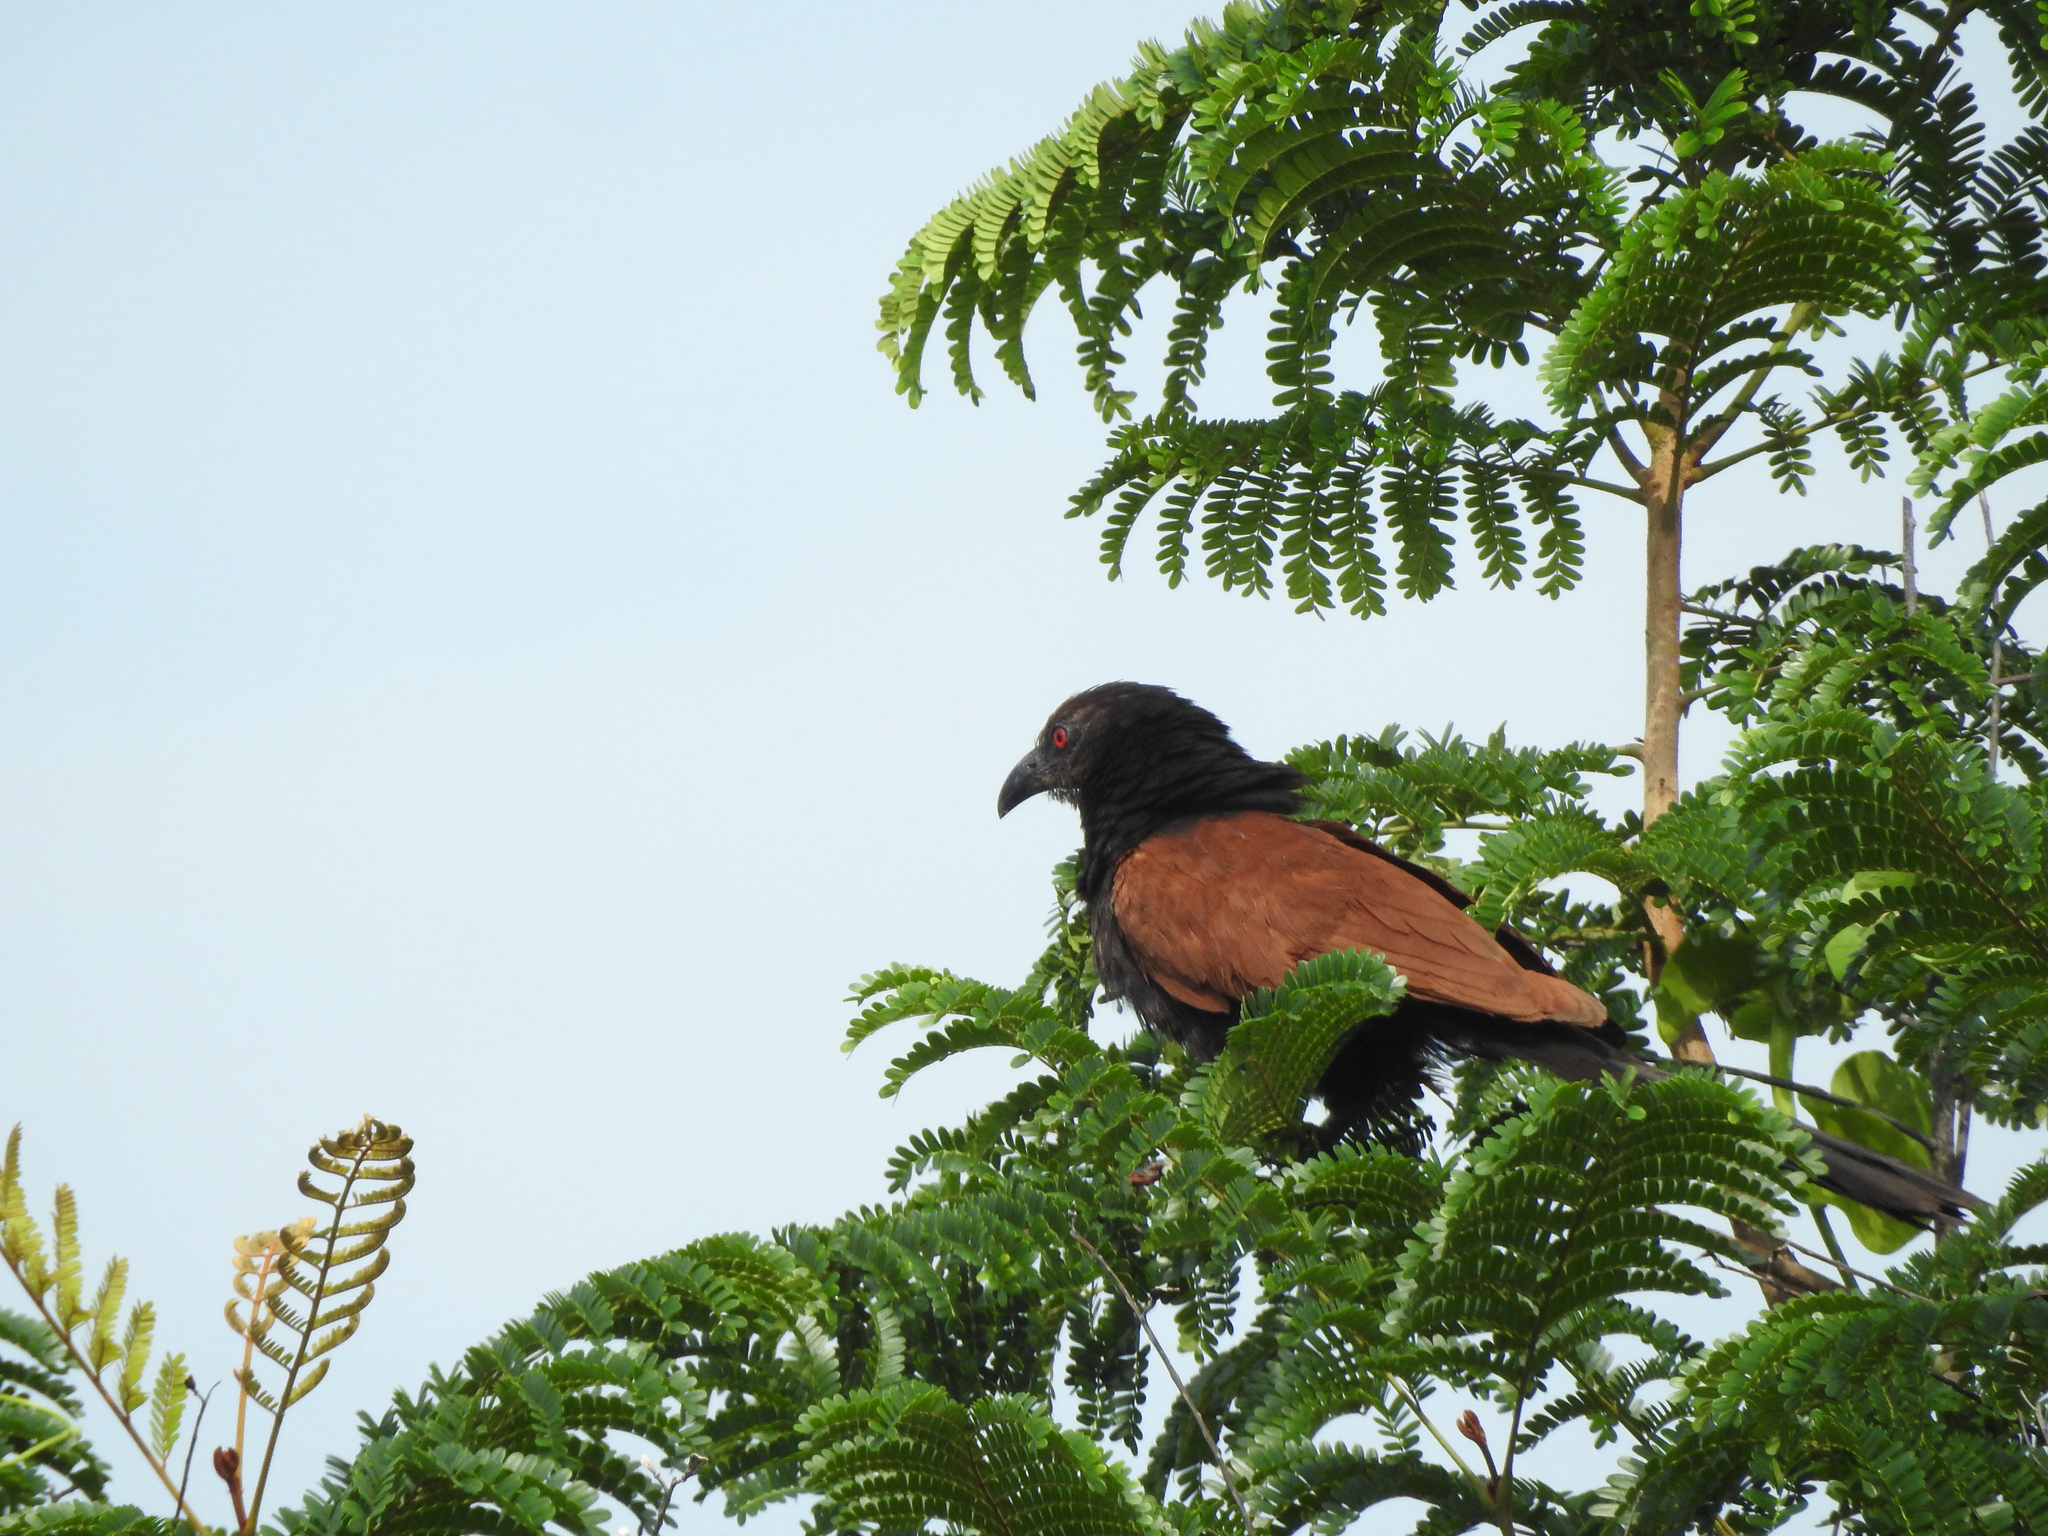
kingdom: Animalia
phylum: Chordata
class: Aves
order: Cuculiformes
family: Cuculidae
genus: Centropus
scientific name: Centropus sinensis
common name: Greater coucal
